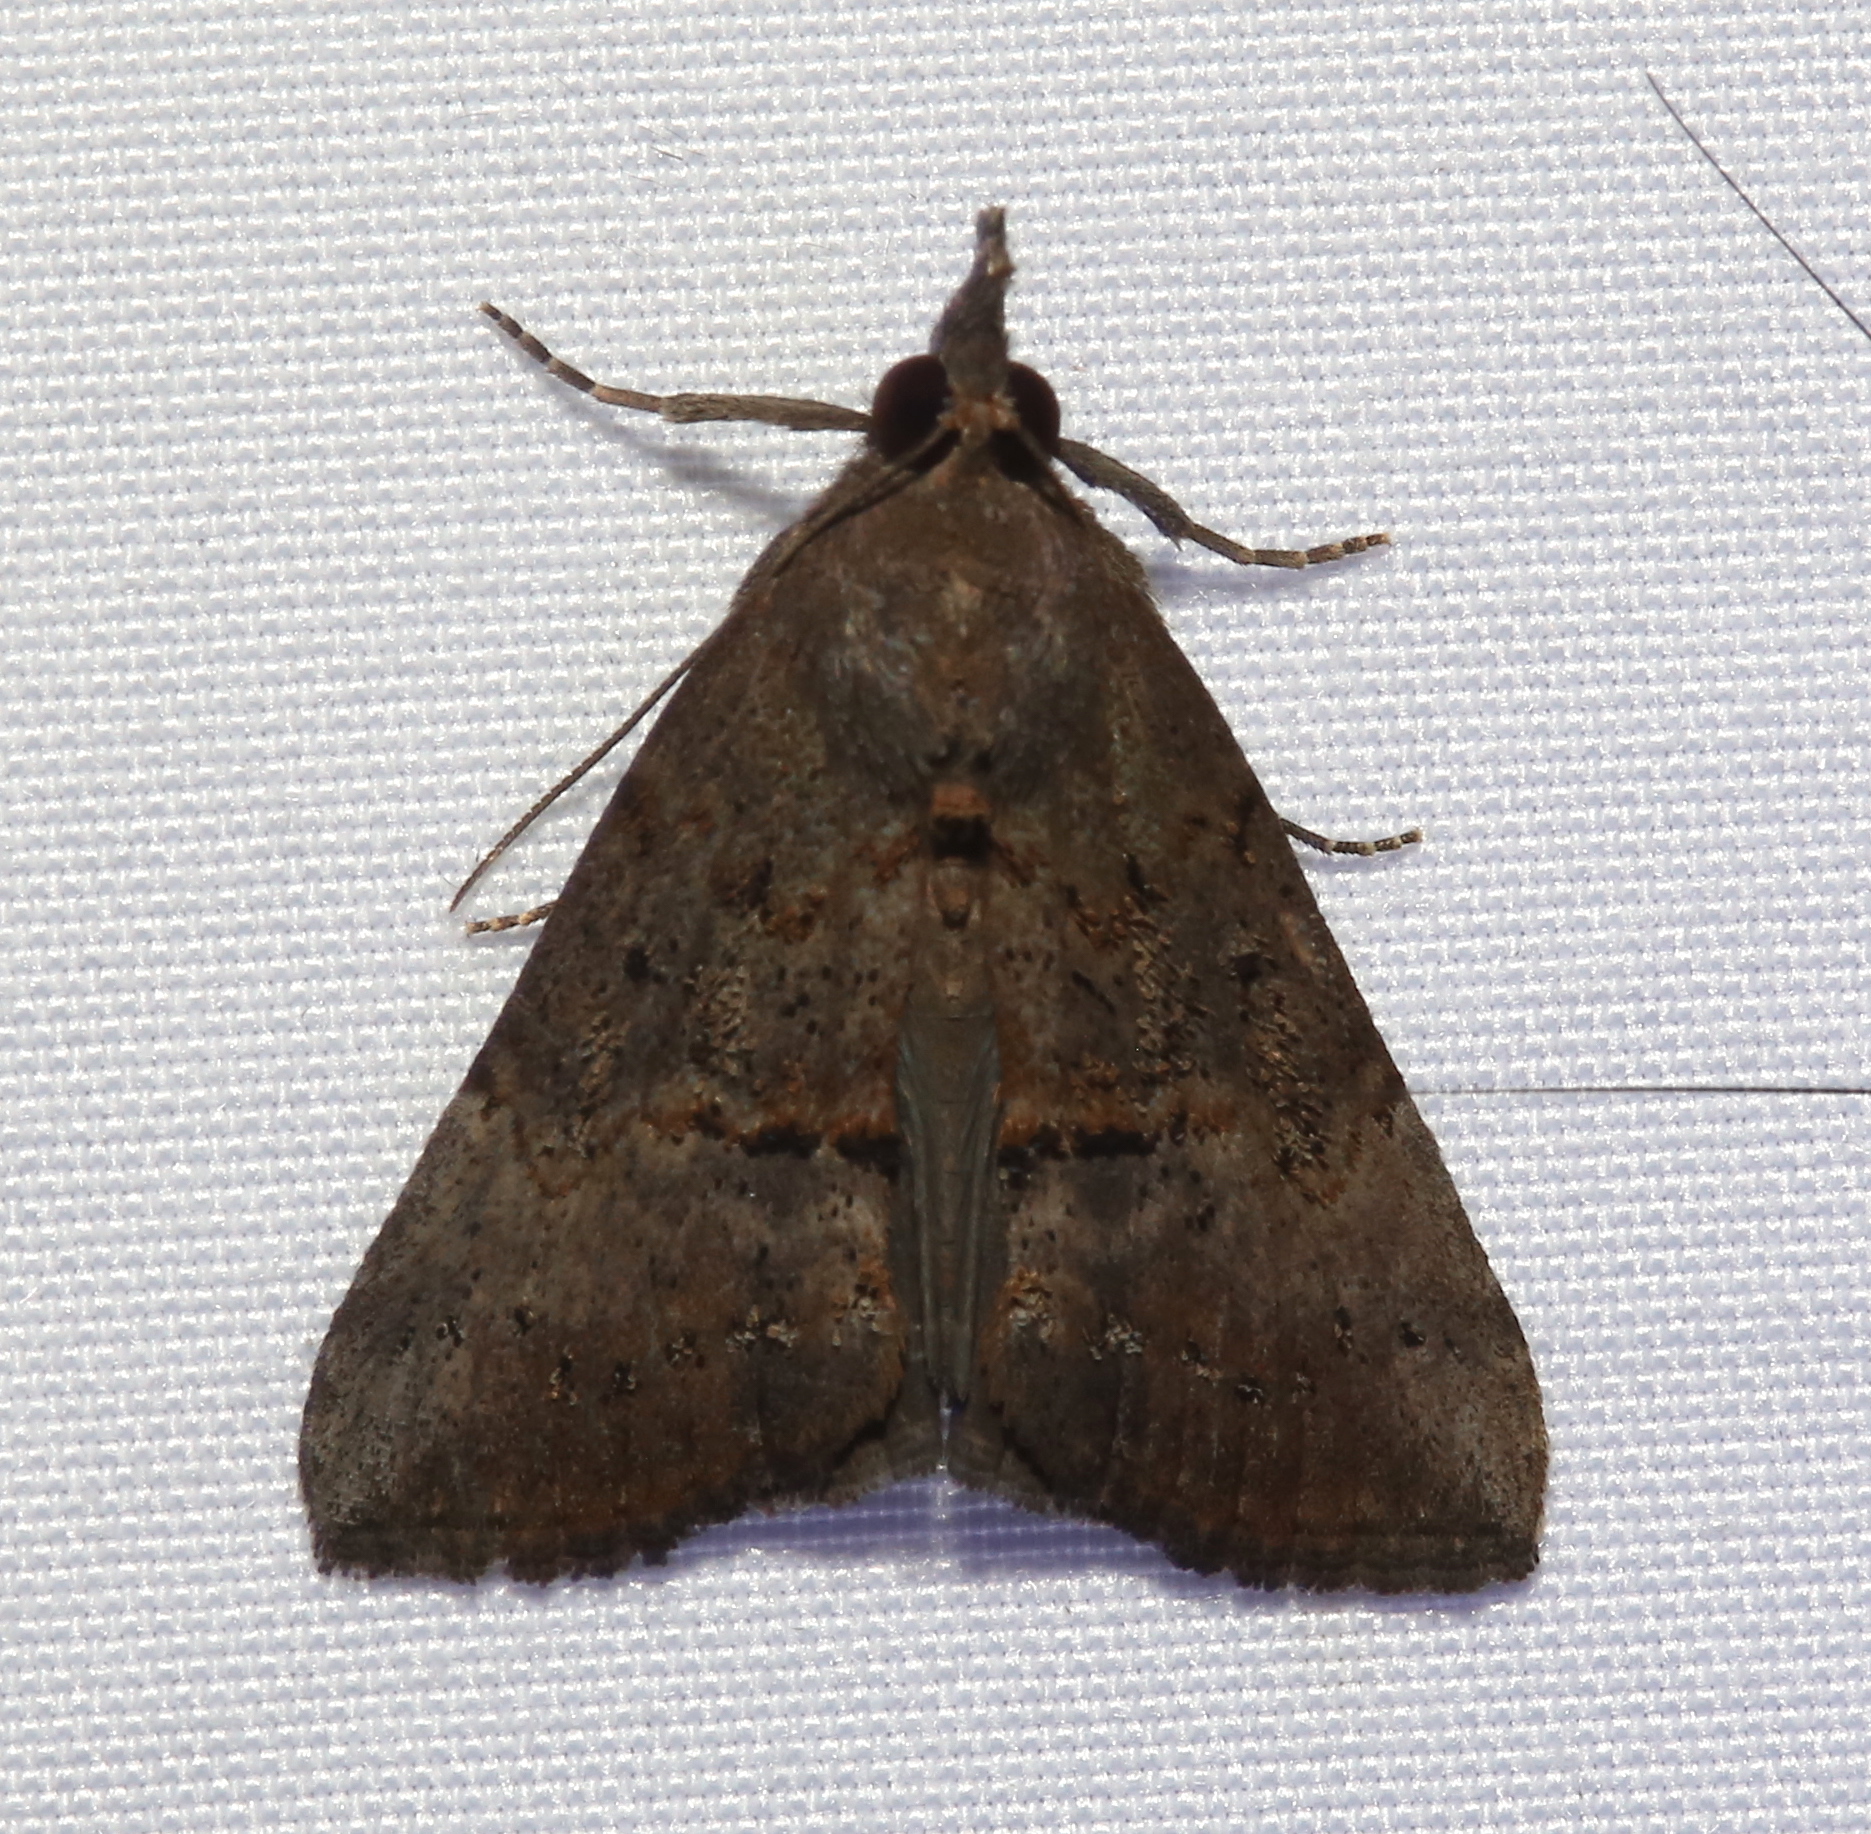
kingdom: Animalia
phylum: Arthropoda
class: Insecta
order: Lepidoptera
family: Erebidae
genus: Hypena
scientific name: Hypena scabra
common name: Green cloverworm
